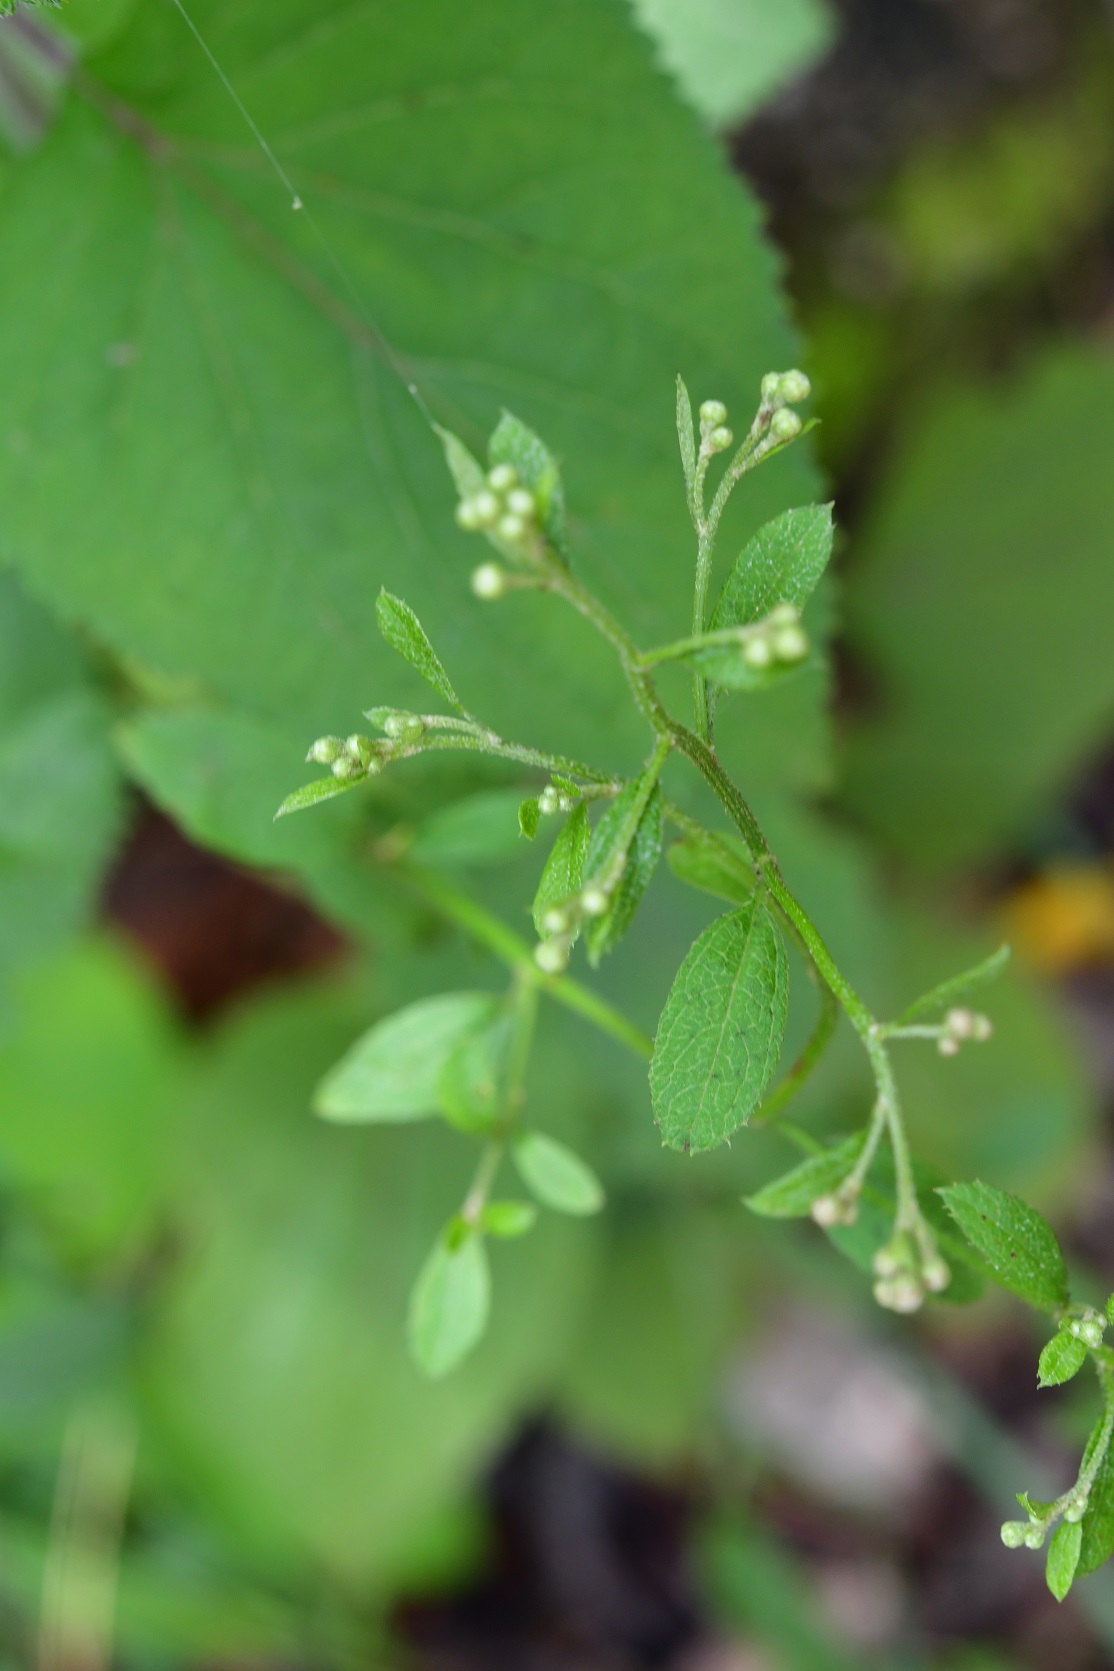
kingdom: Plantae
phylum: Tracheophyta
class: Magnoliopsida
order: Asterales
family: Asteraceae
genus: Archibaccharis
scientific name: Archibaccharis serratifolia
